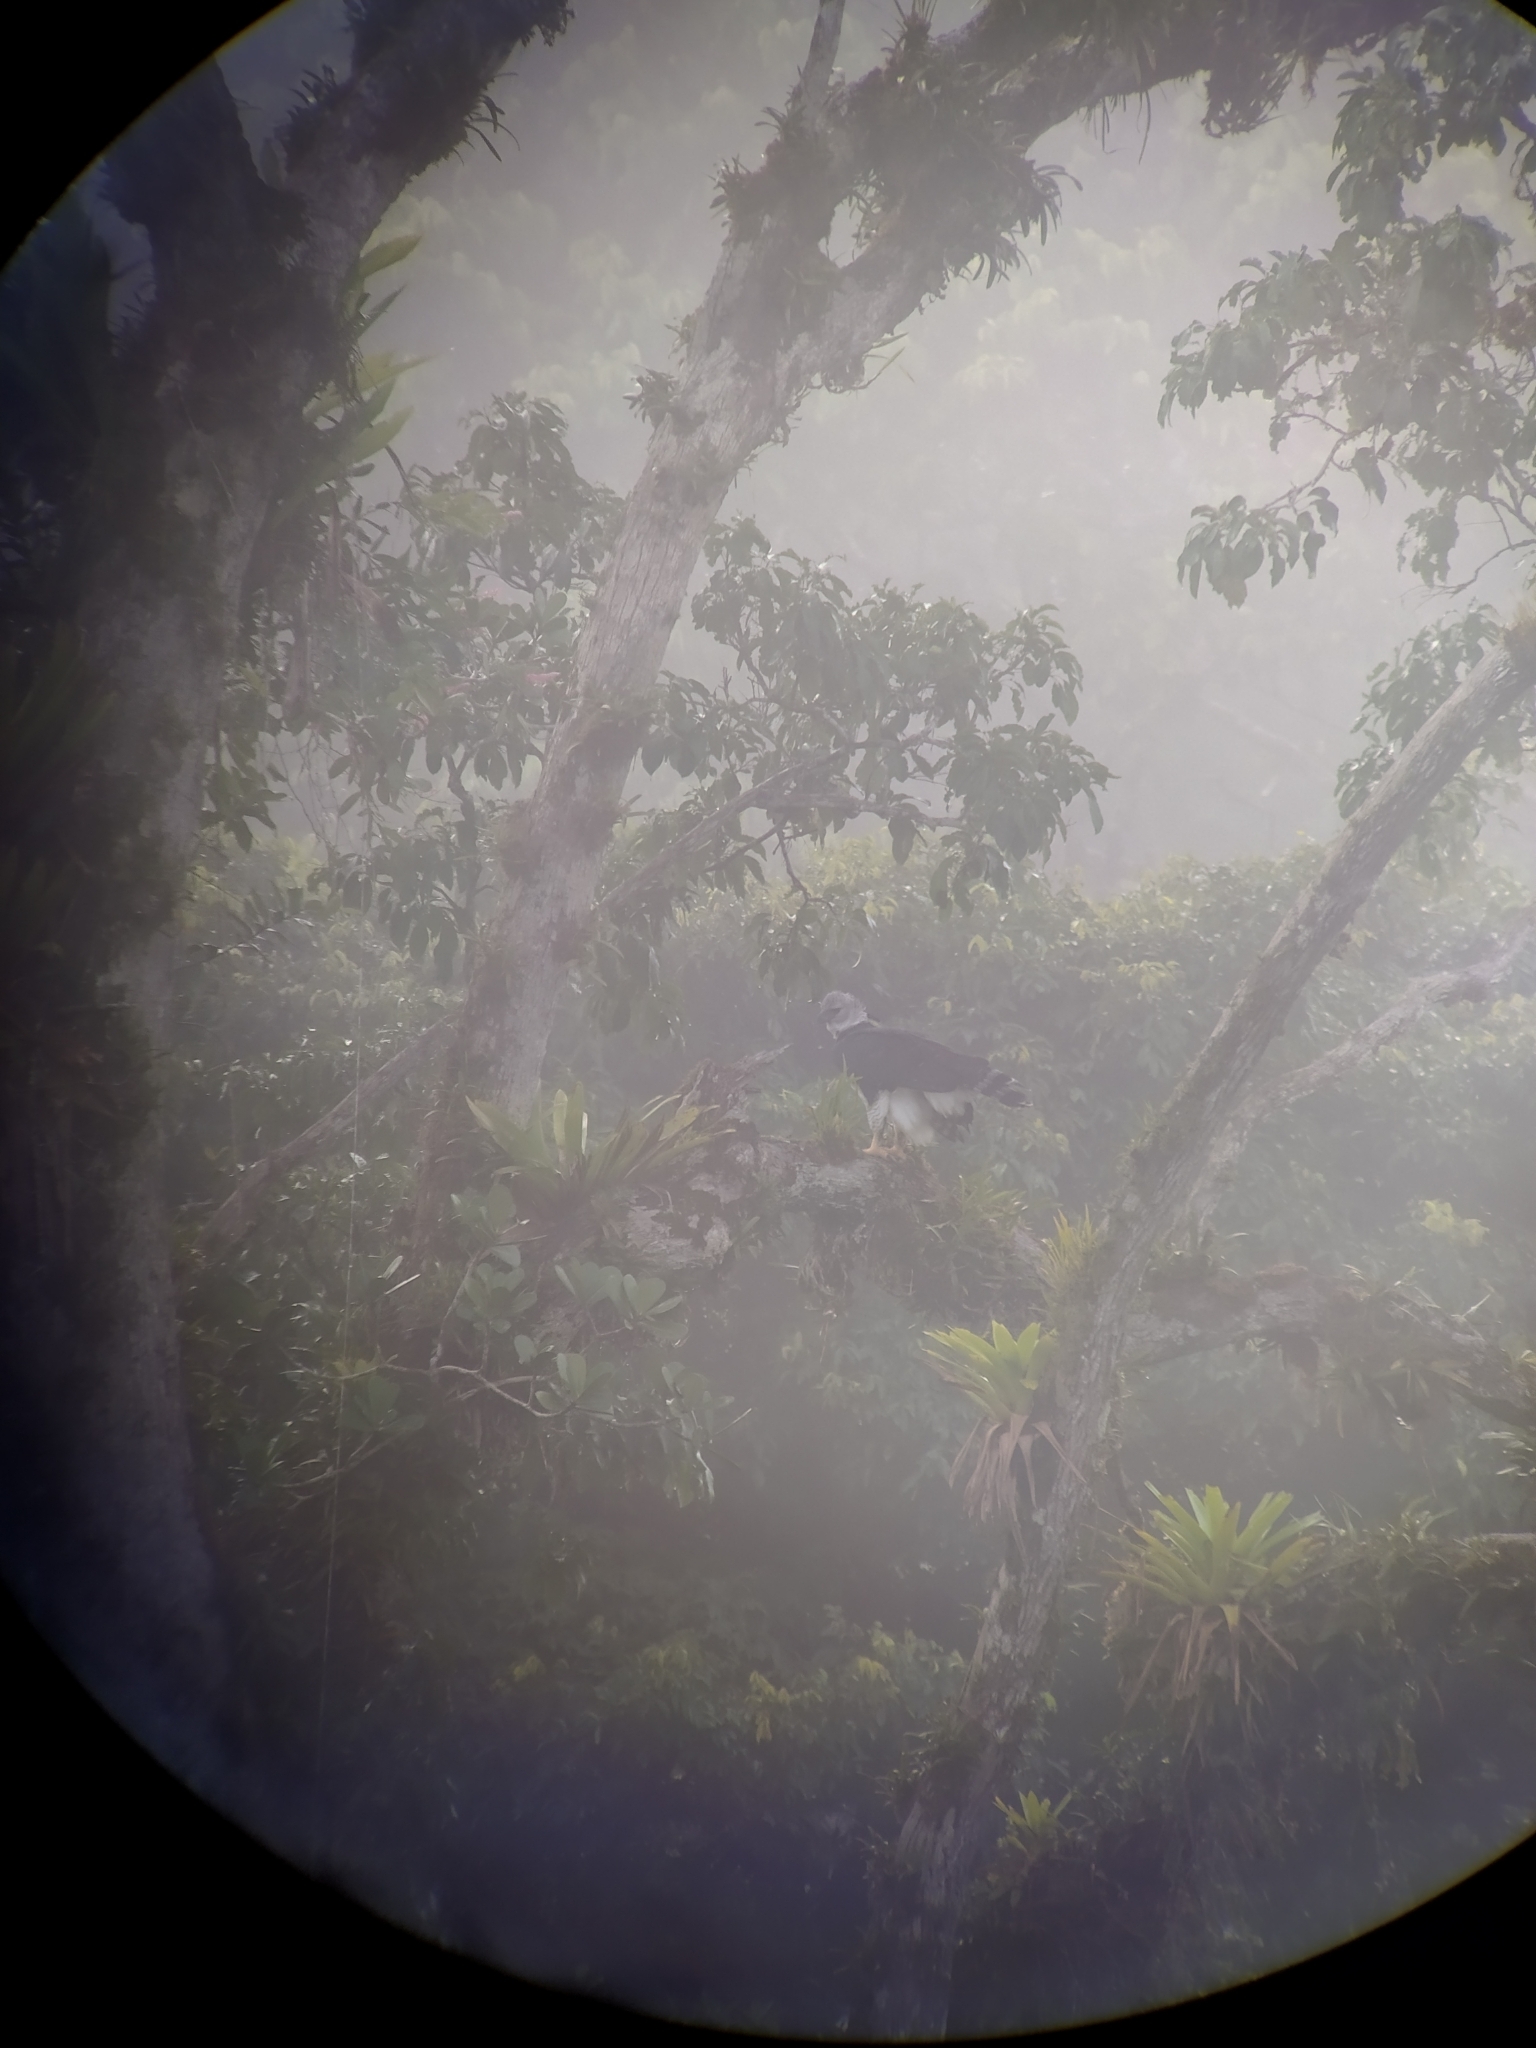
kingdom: Animalia
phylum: Chordata
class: Aves
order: Accipitriformes
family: Accipitridae
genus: Harpia
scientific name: Harpia harpyja
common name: Harpy eagle
